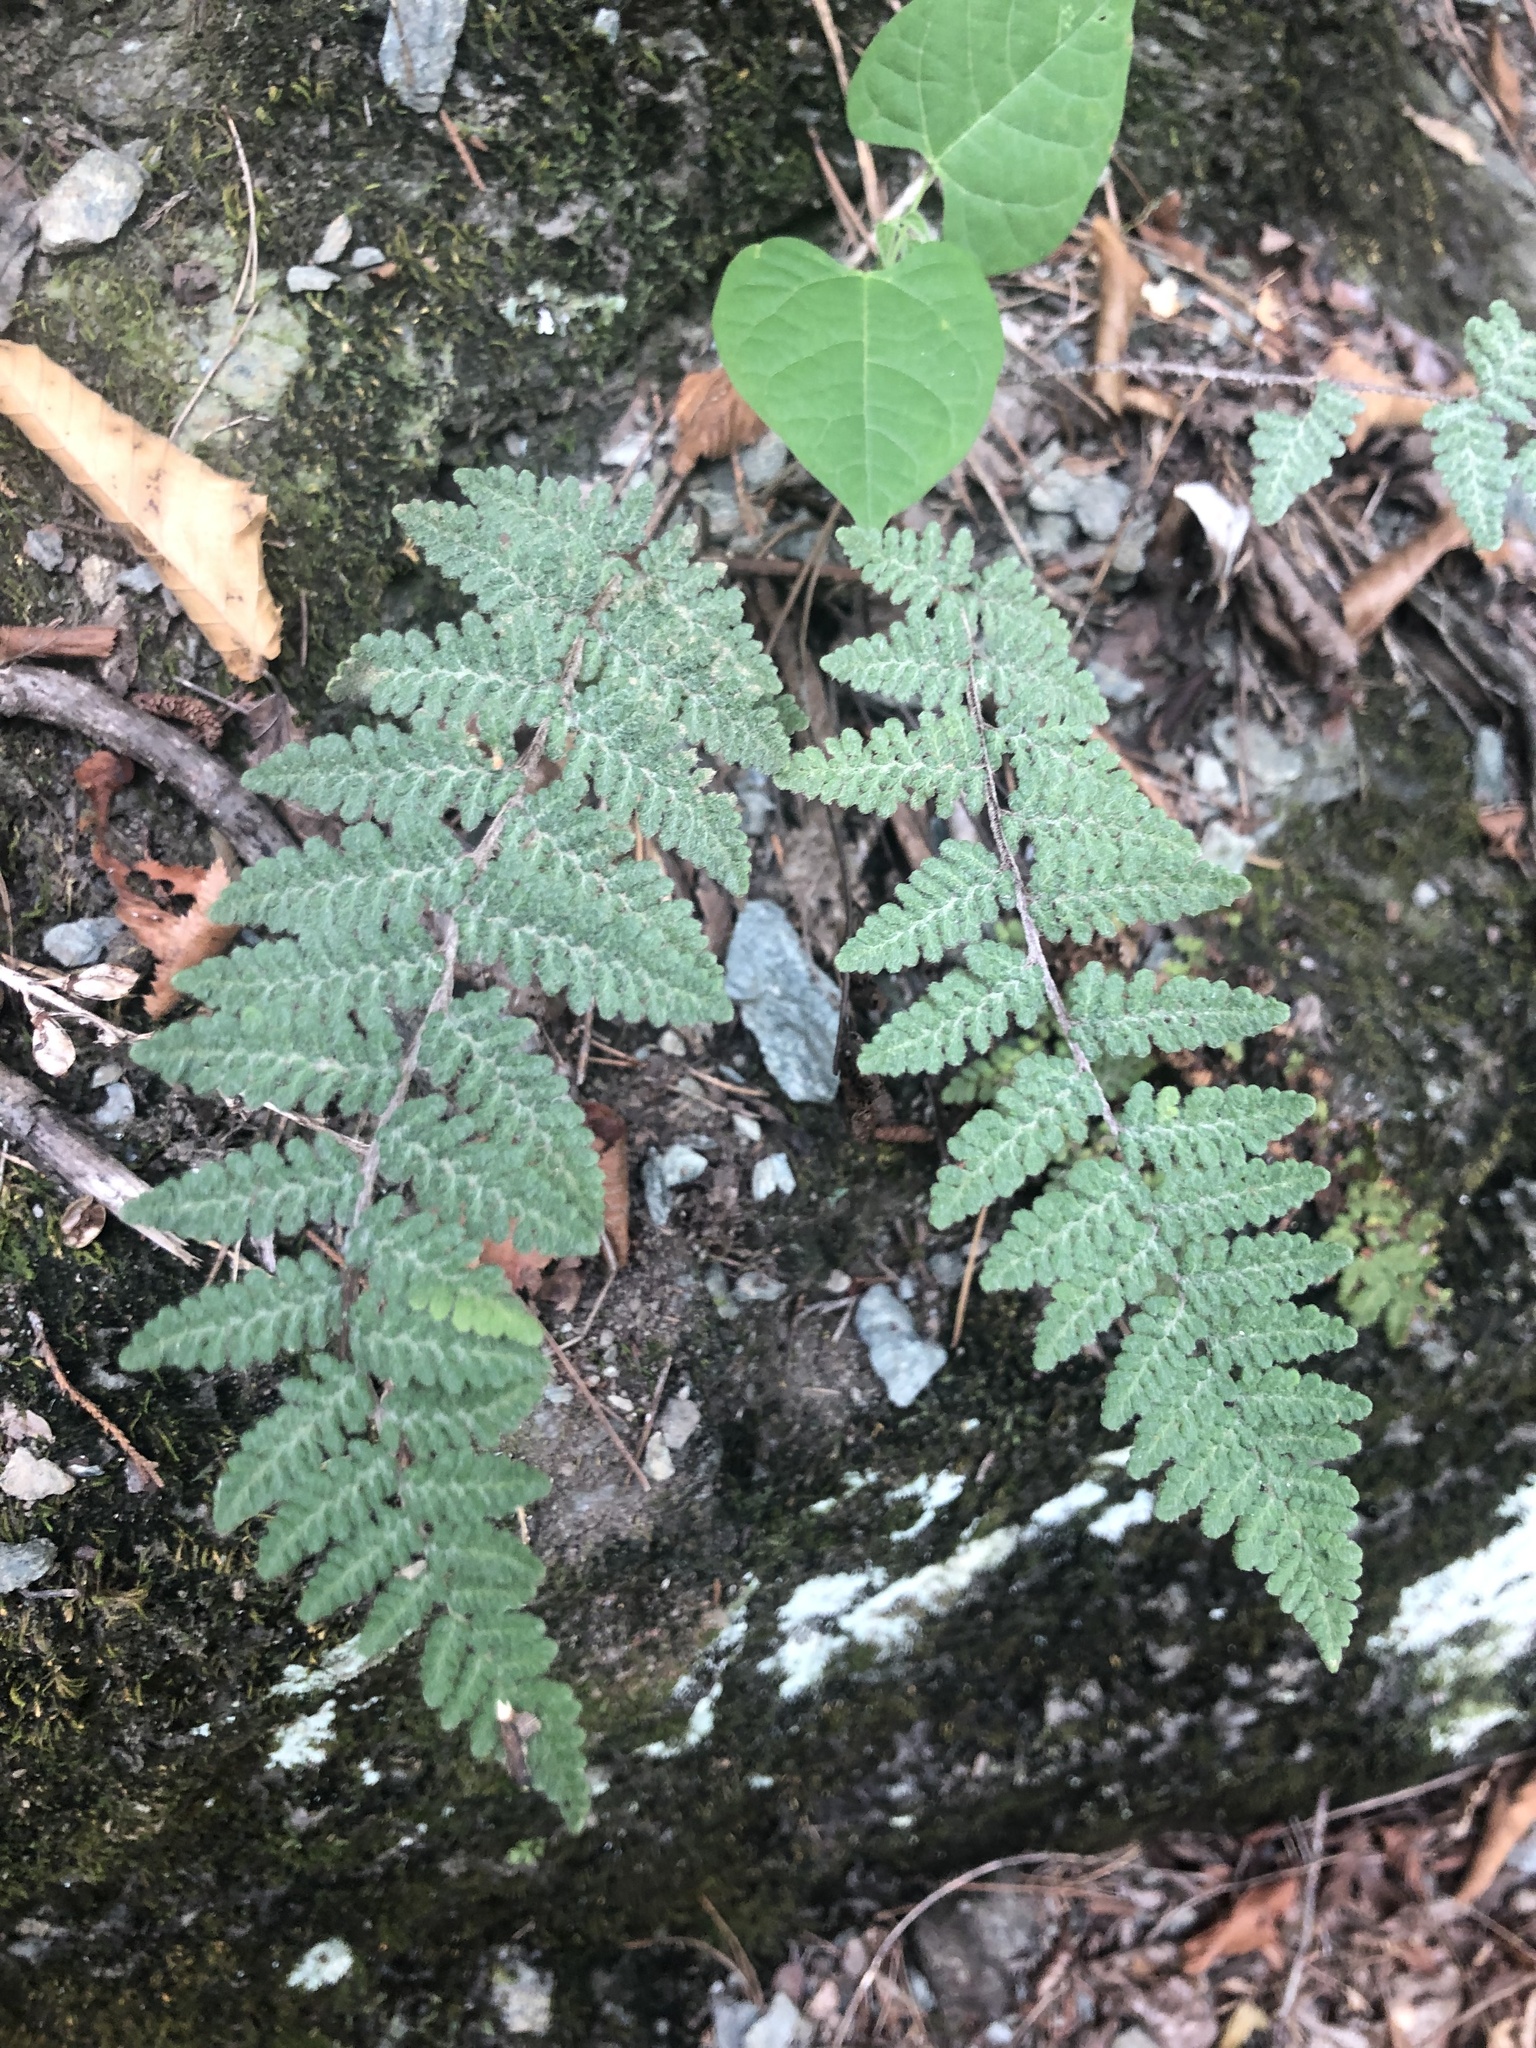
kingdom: Plantae
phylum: Tracheophyta
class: Polypodiopsida
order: Polypodiales
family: Pteridaceae
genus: Myriopteris
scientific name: Myriopteris tomentosa
